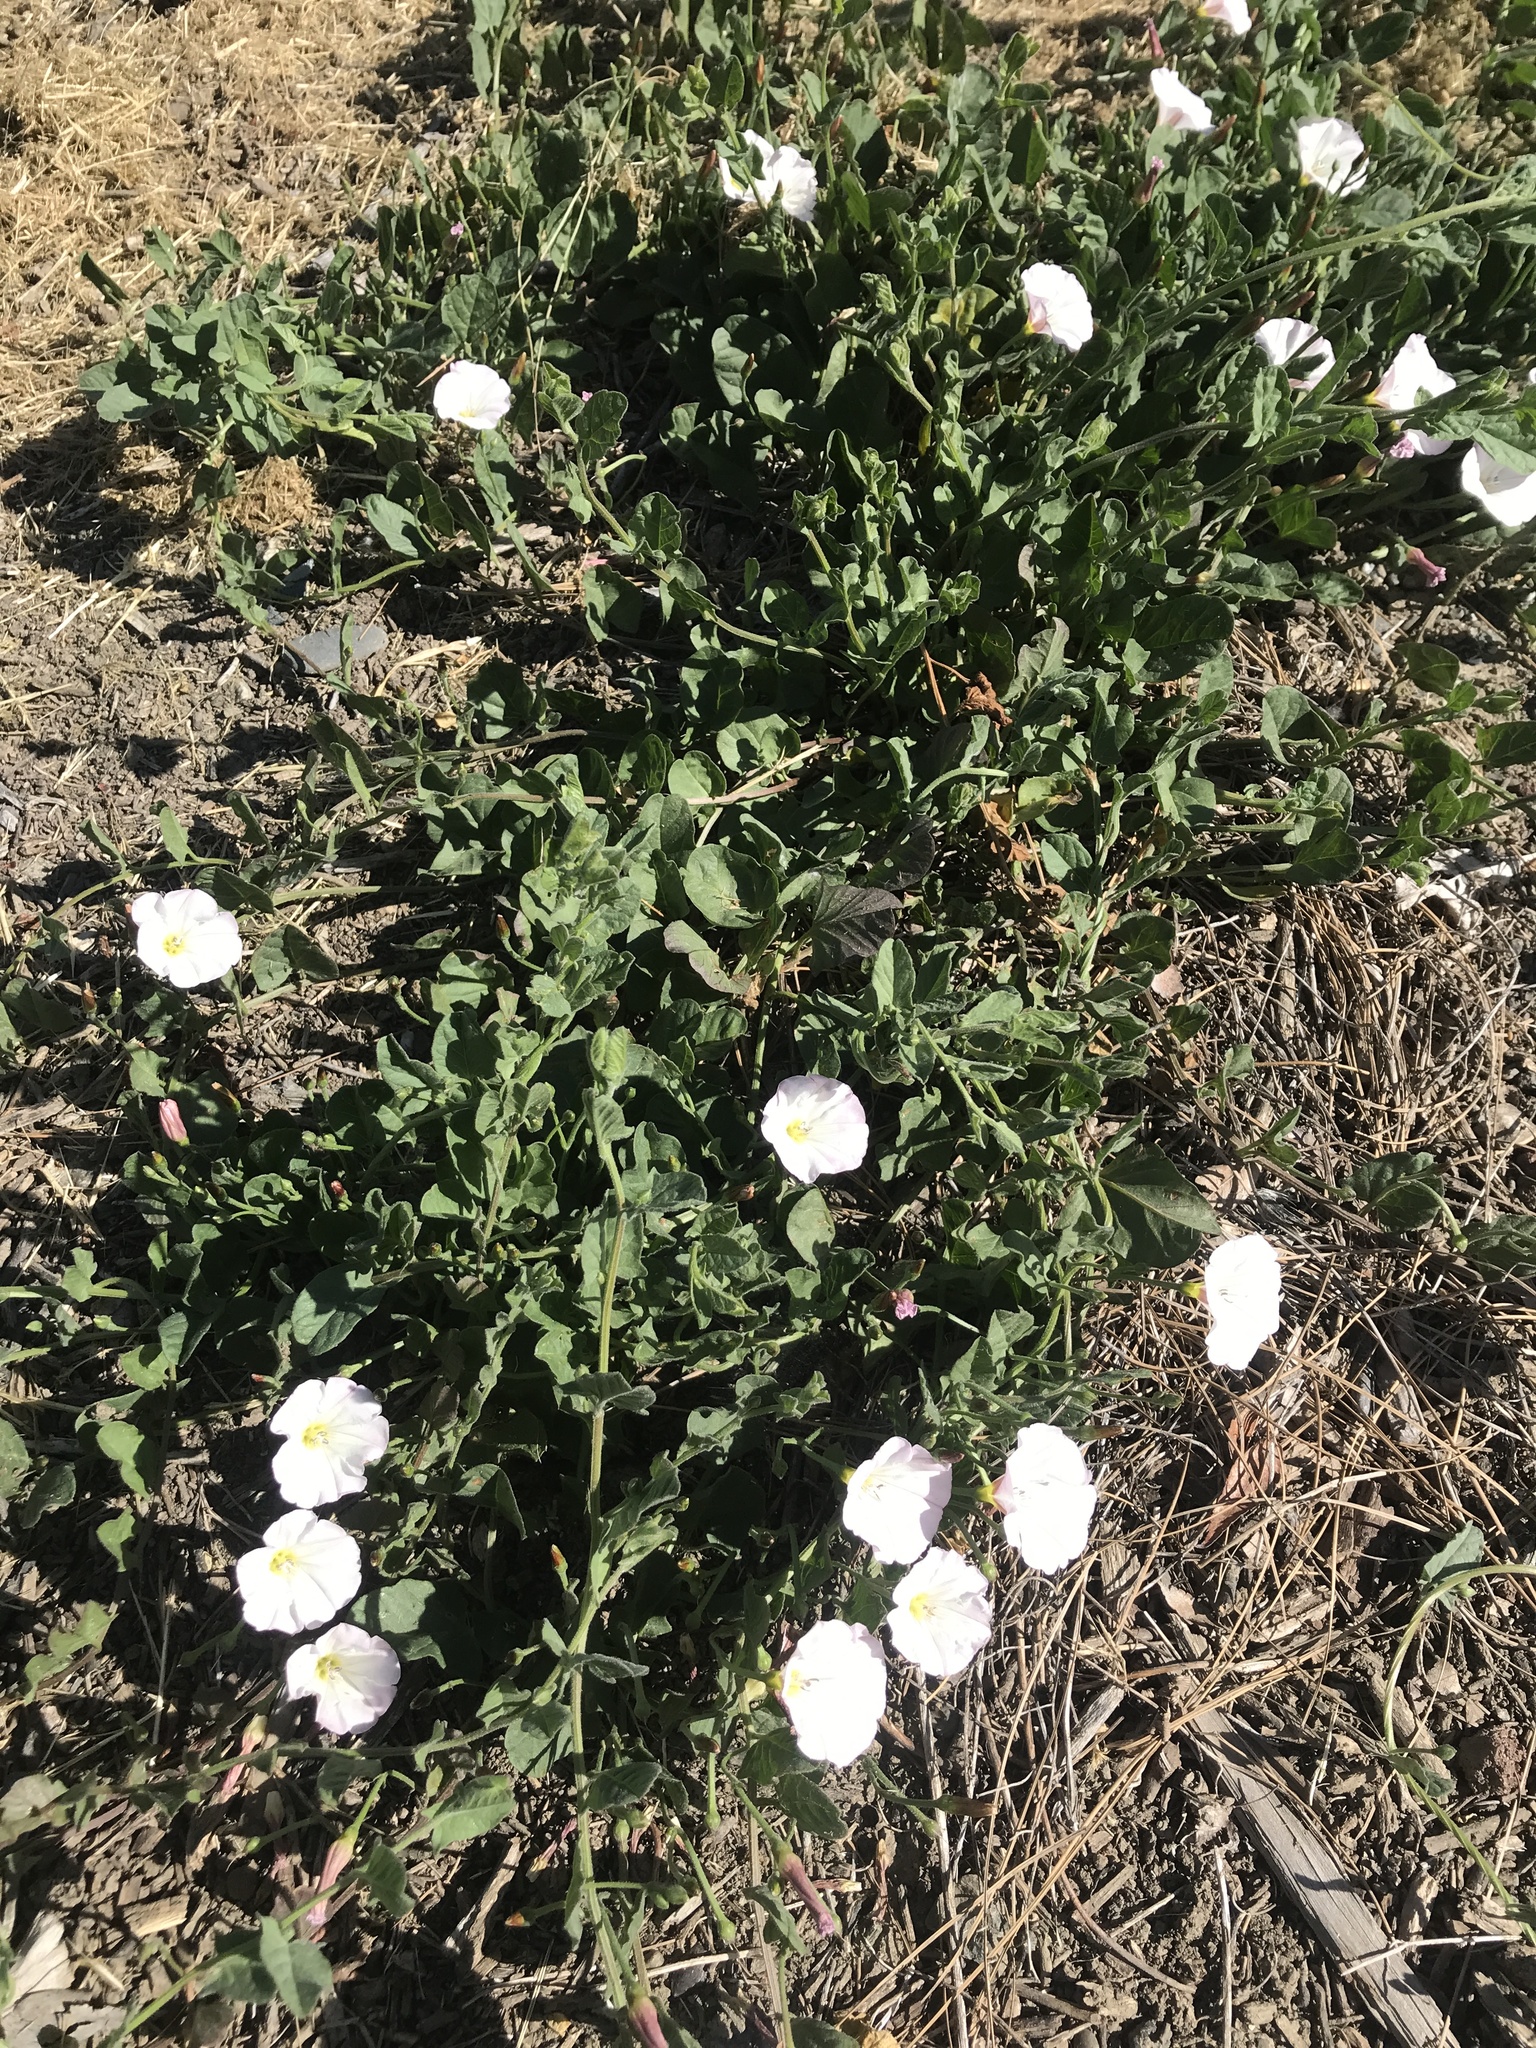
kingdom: Plantae
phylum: Tracheophyta
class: Magnoliopsida
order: Solanales
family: Convolvulaceae
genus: Convolvulus
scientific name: Convolvulus arvensis
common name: Field bindweed
